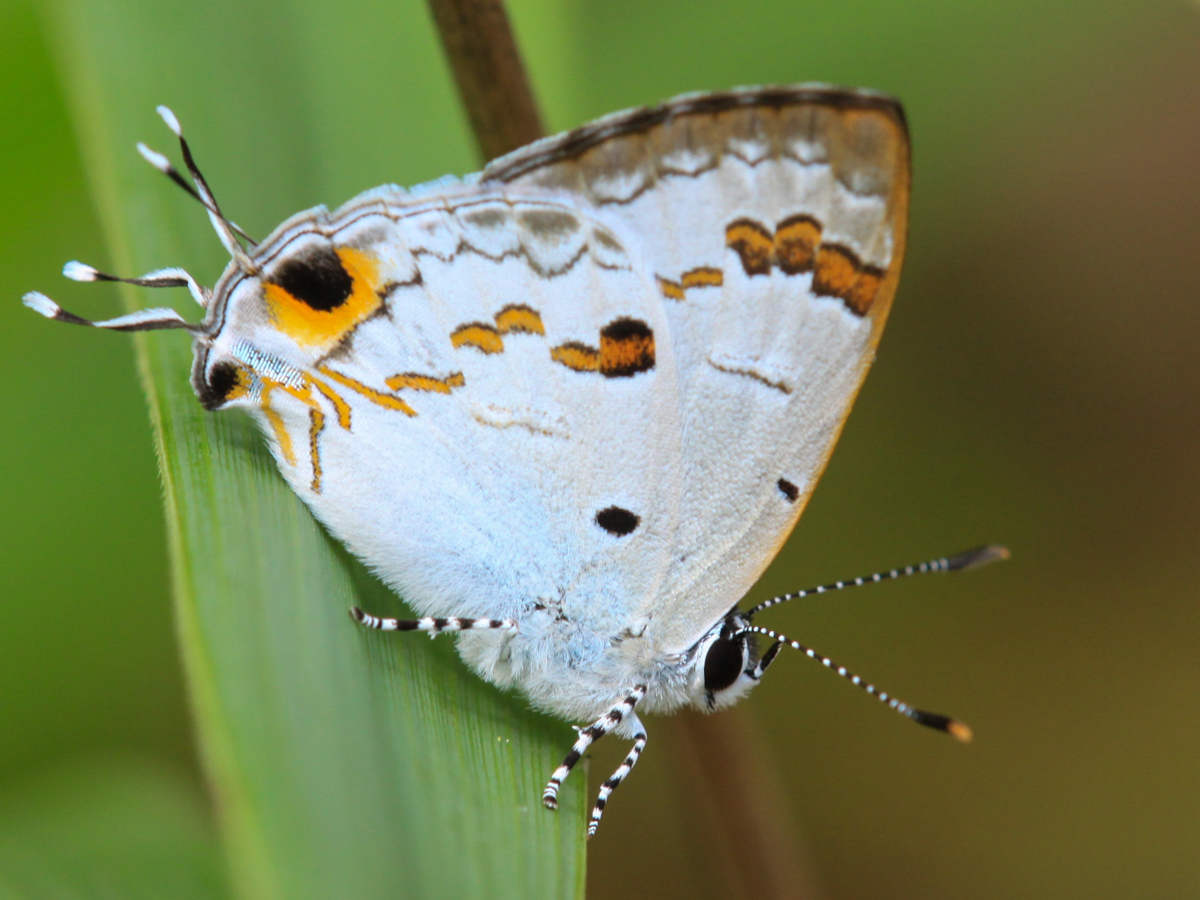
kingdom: Animalia
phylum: Arthropoda
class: Insecta
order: Lepidoptera
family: Lycaenidae
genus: Chliaria
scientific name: Chliaria othona
